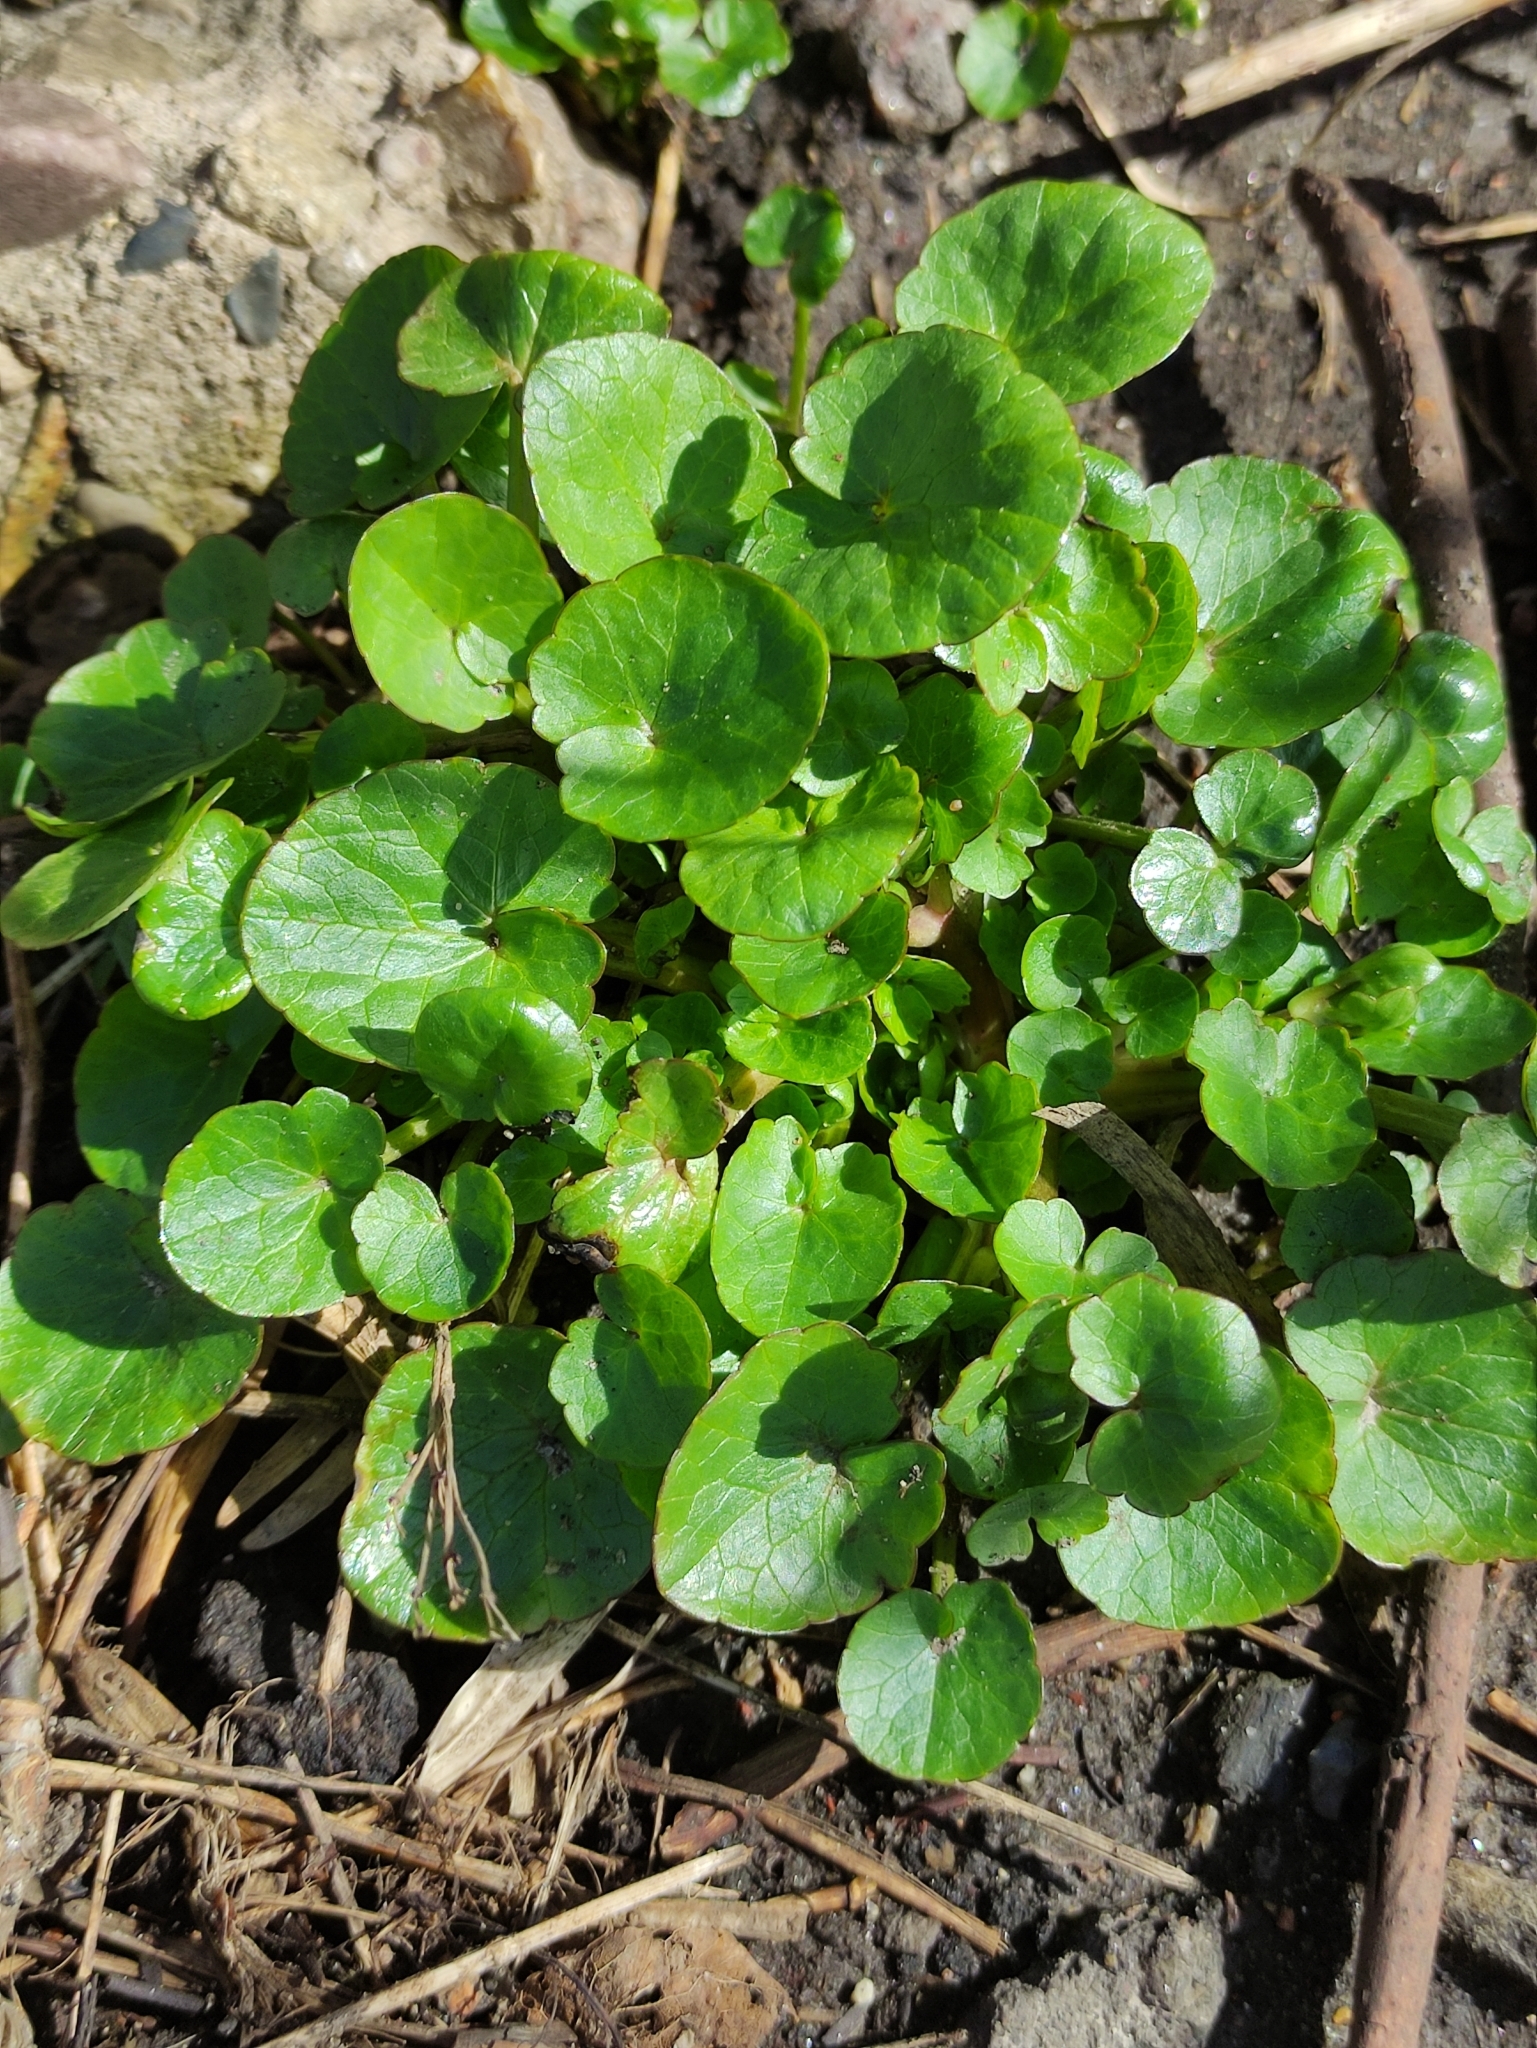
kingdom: Plantae
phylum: Tracheophyta
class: Magnoliopsida
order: Ranunculales
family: Ranunculaceae
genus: Ficaria
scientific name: Ficaria verna
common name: Lesser celandine
